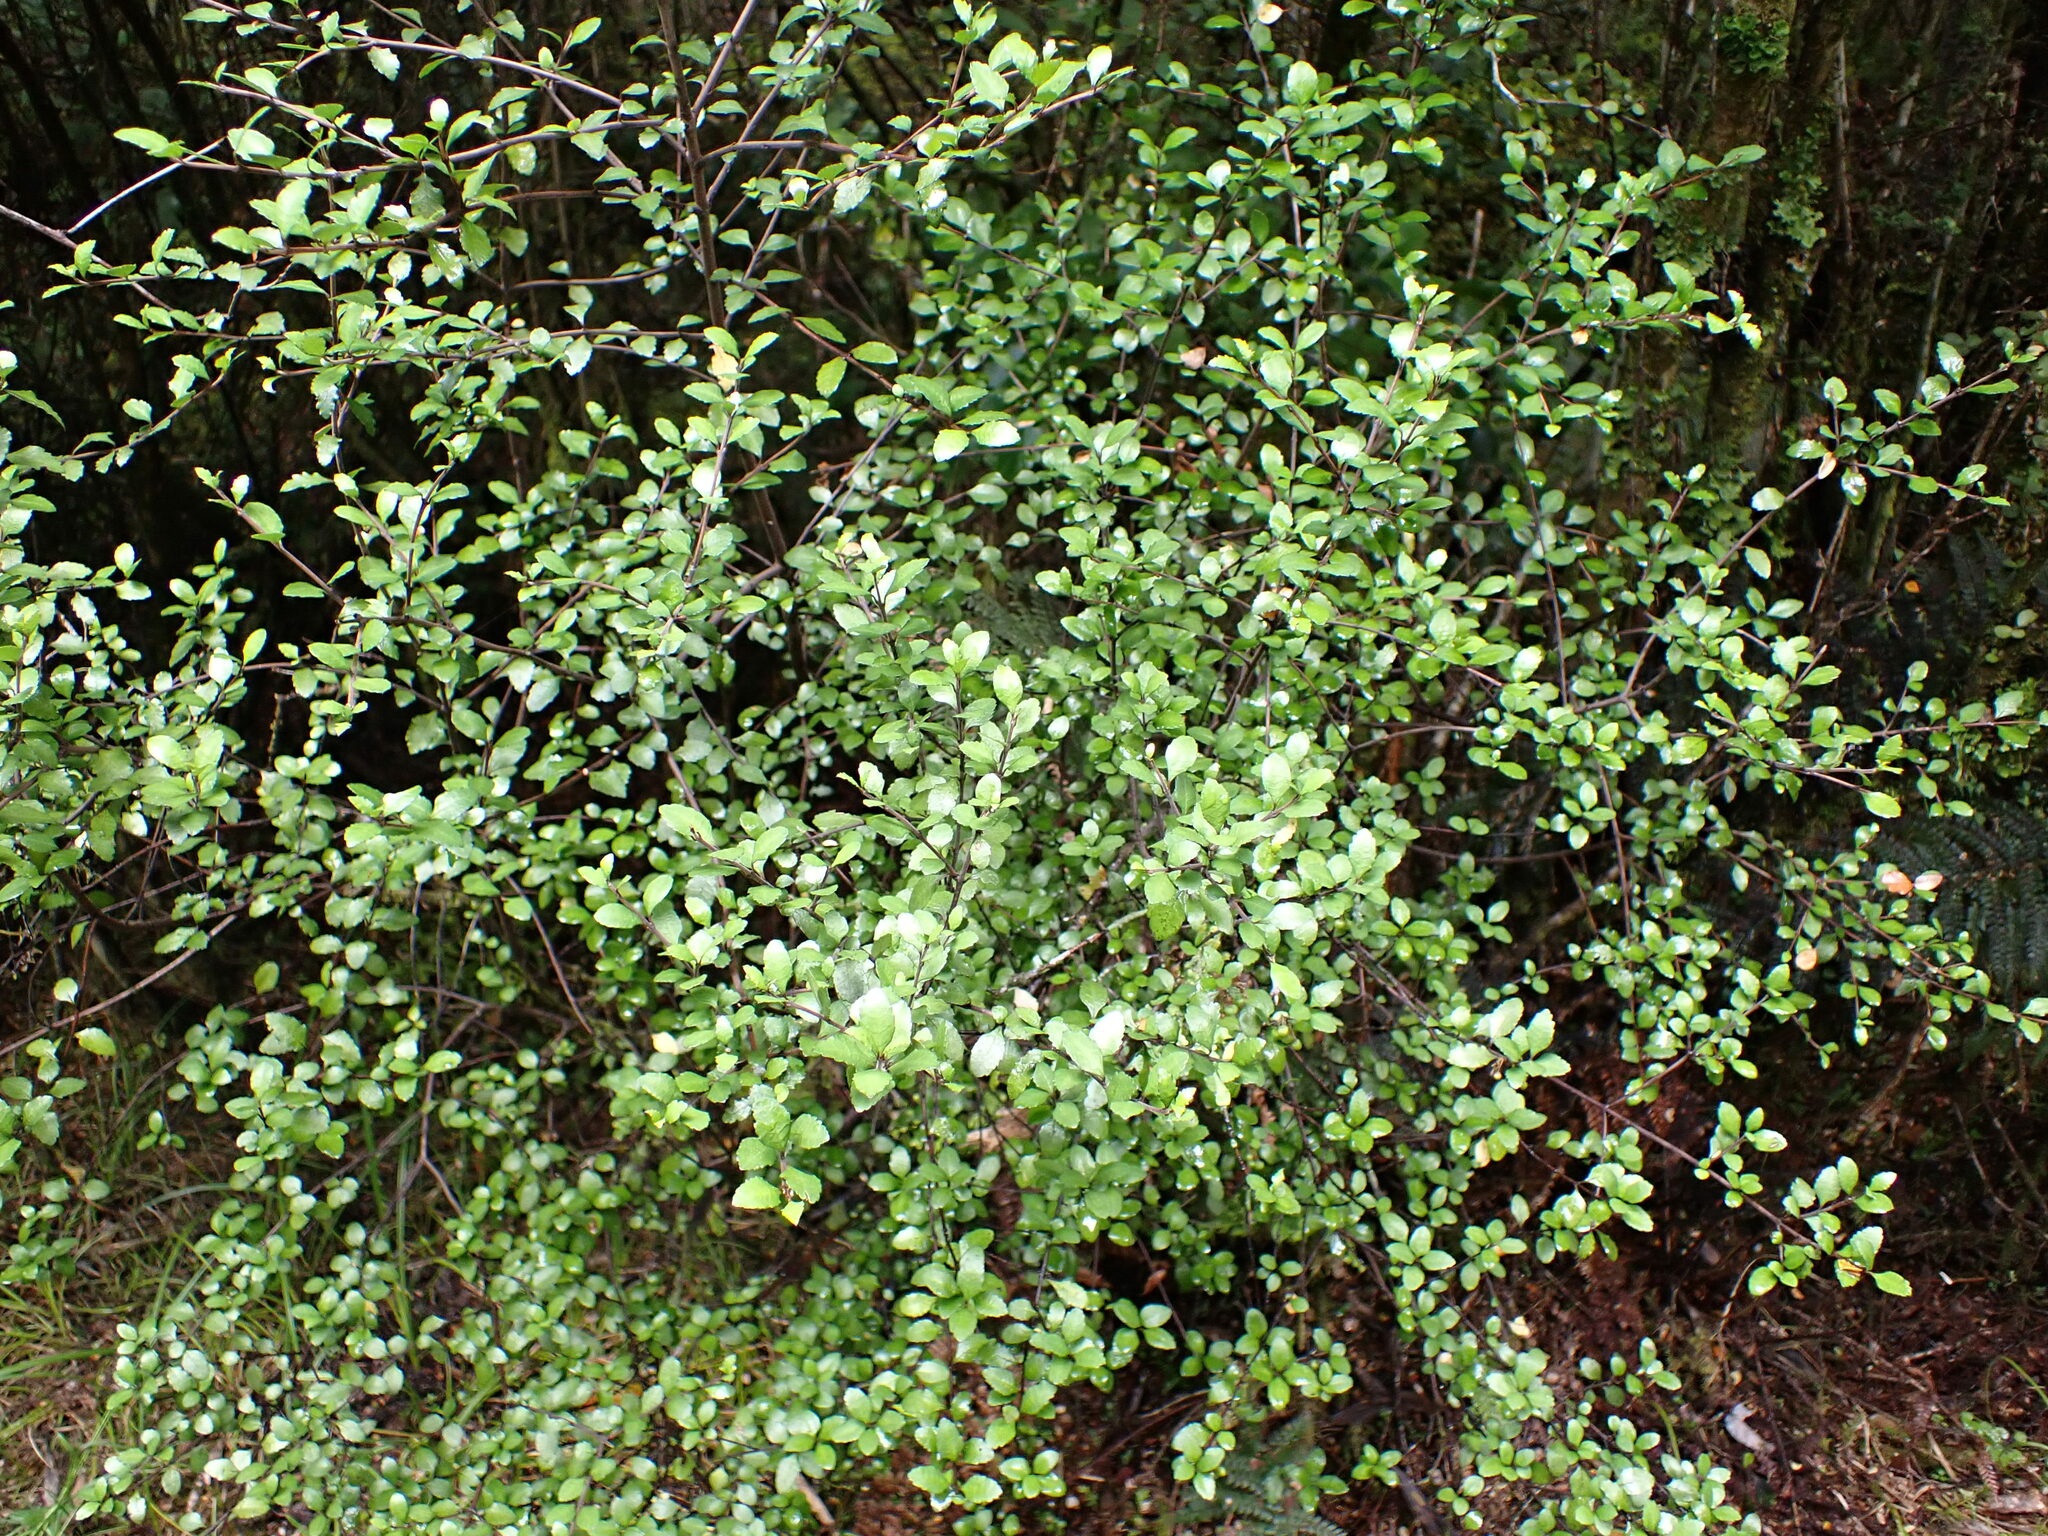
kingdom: Plantae
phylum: Tracheophyta
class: Magnoliopsida
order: Oxalidales
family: Elaeocarpaceae
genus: Aristotelia
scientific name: Aristotelia fruticosa
